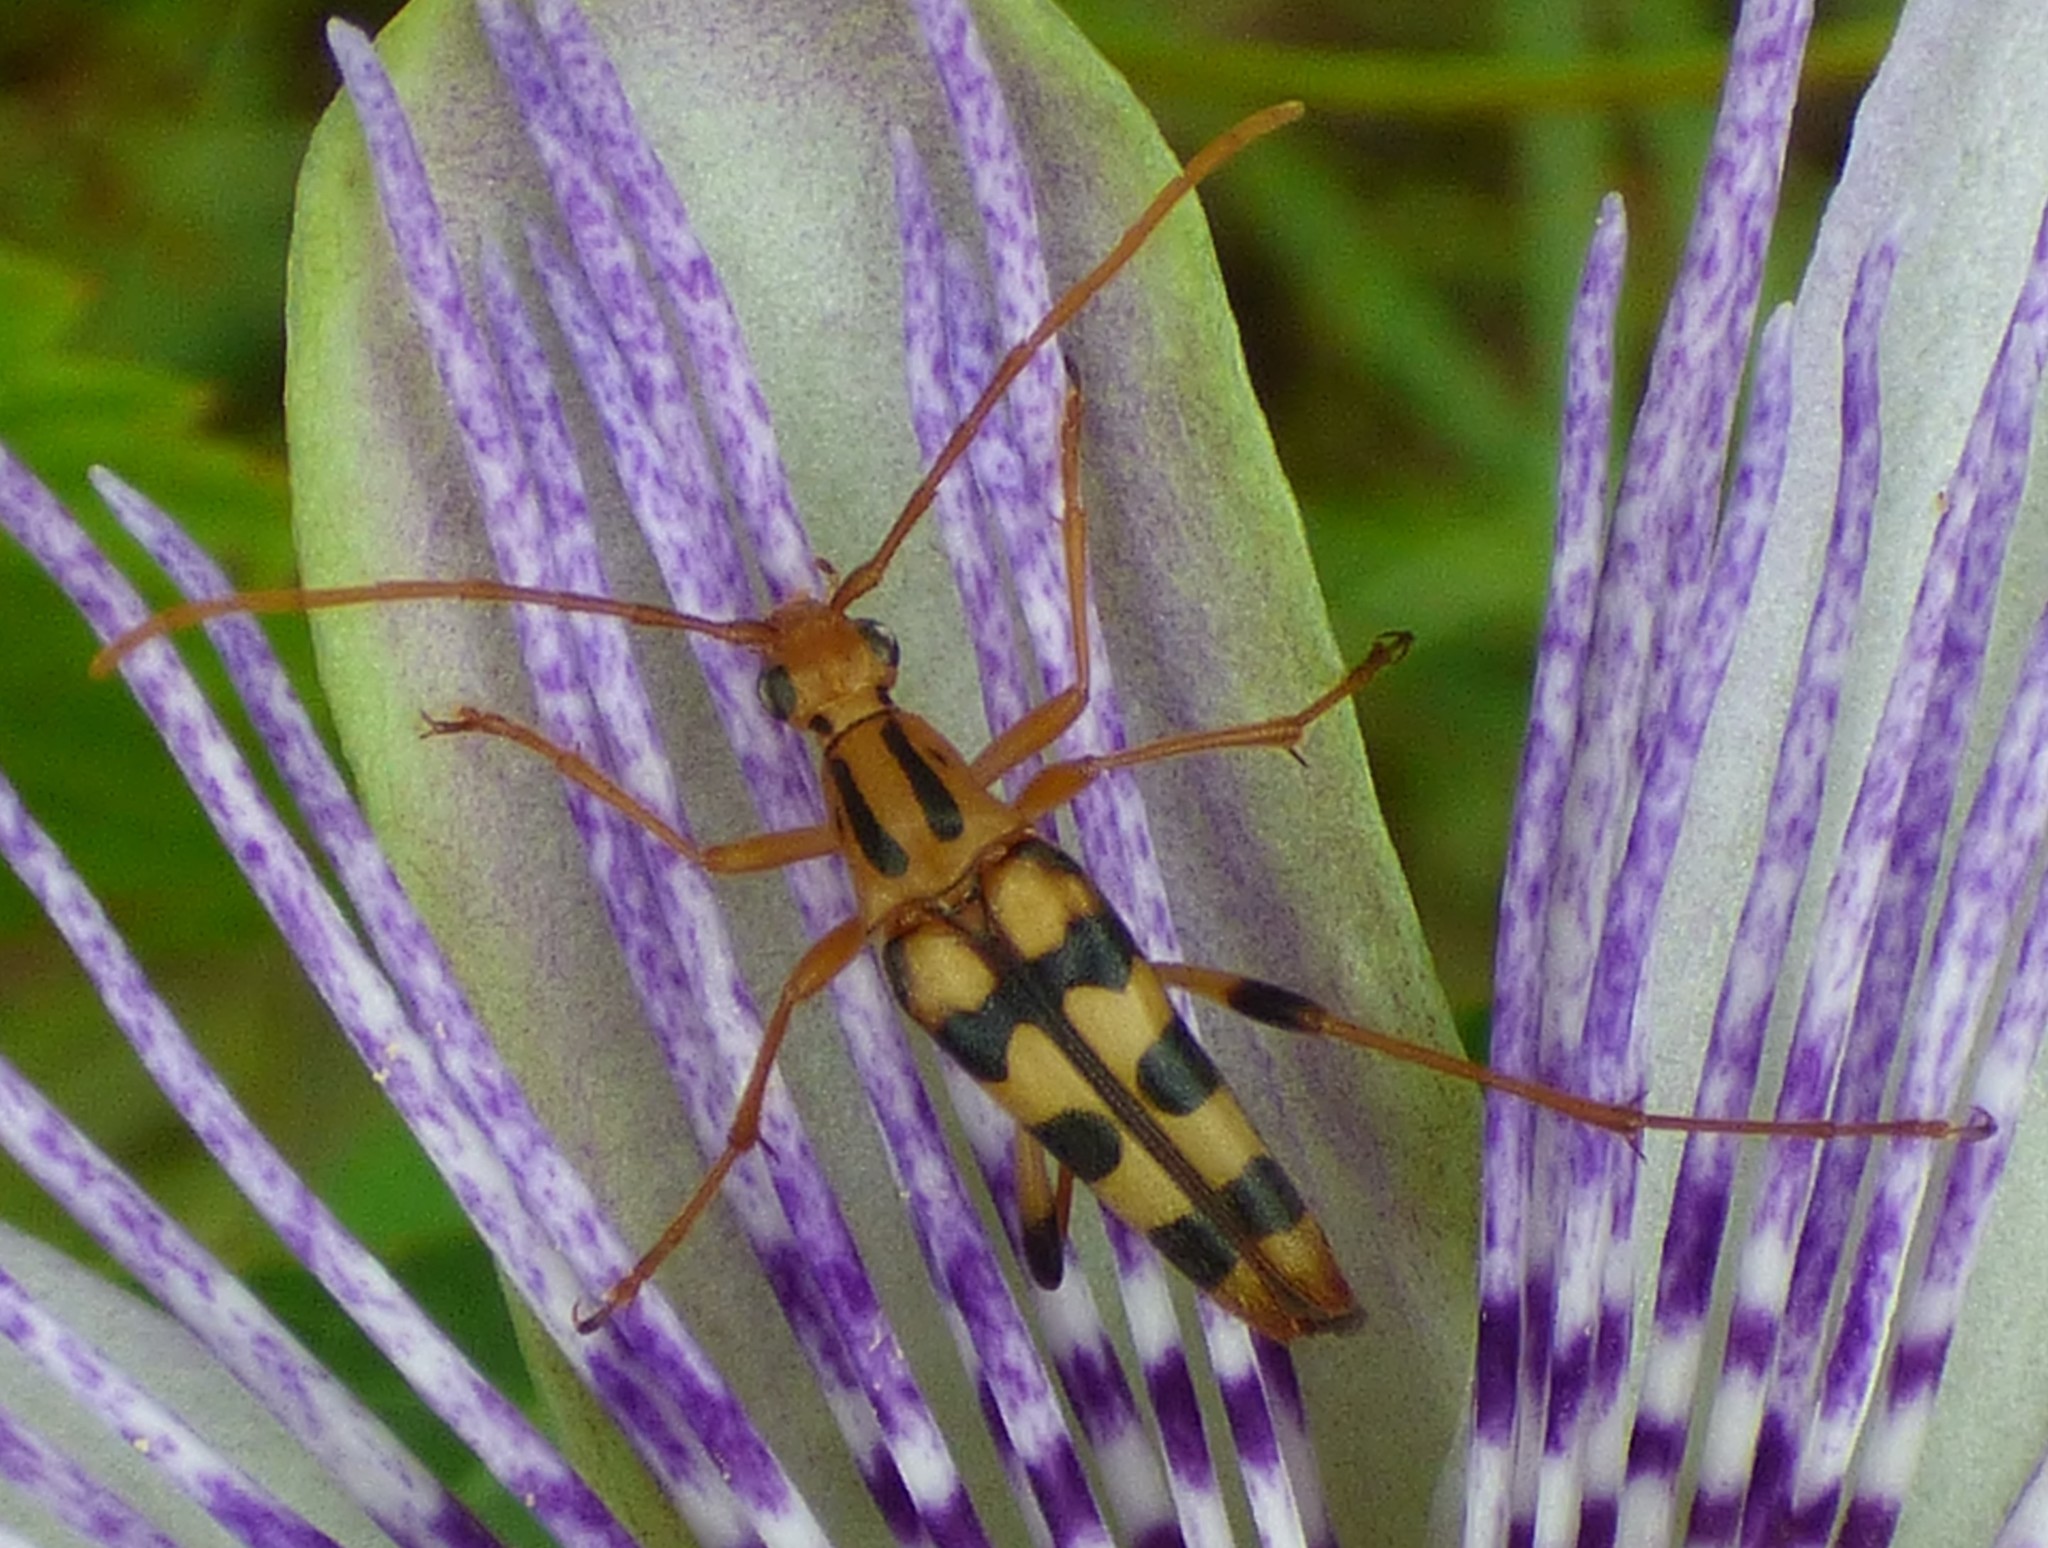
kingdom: Animalia
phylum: Arthropoda
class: Insecta
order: Coleoptera
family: Cerambycidae
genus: Strangalia
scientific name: Strangalia luteicornis
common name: Yellow-horned flower longhorn beetle
